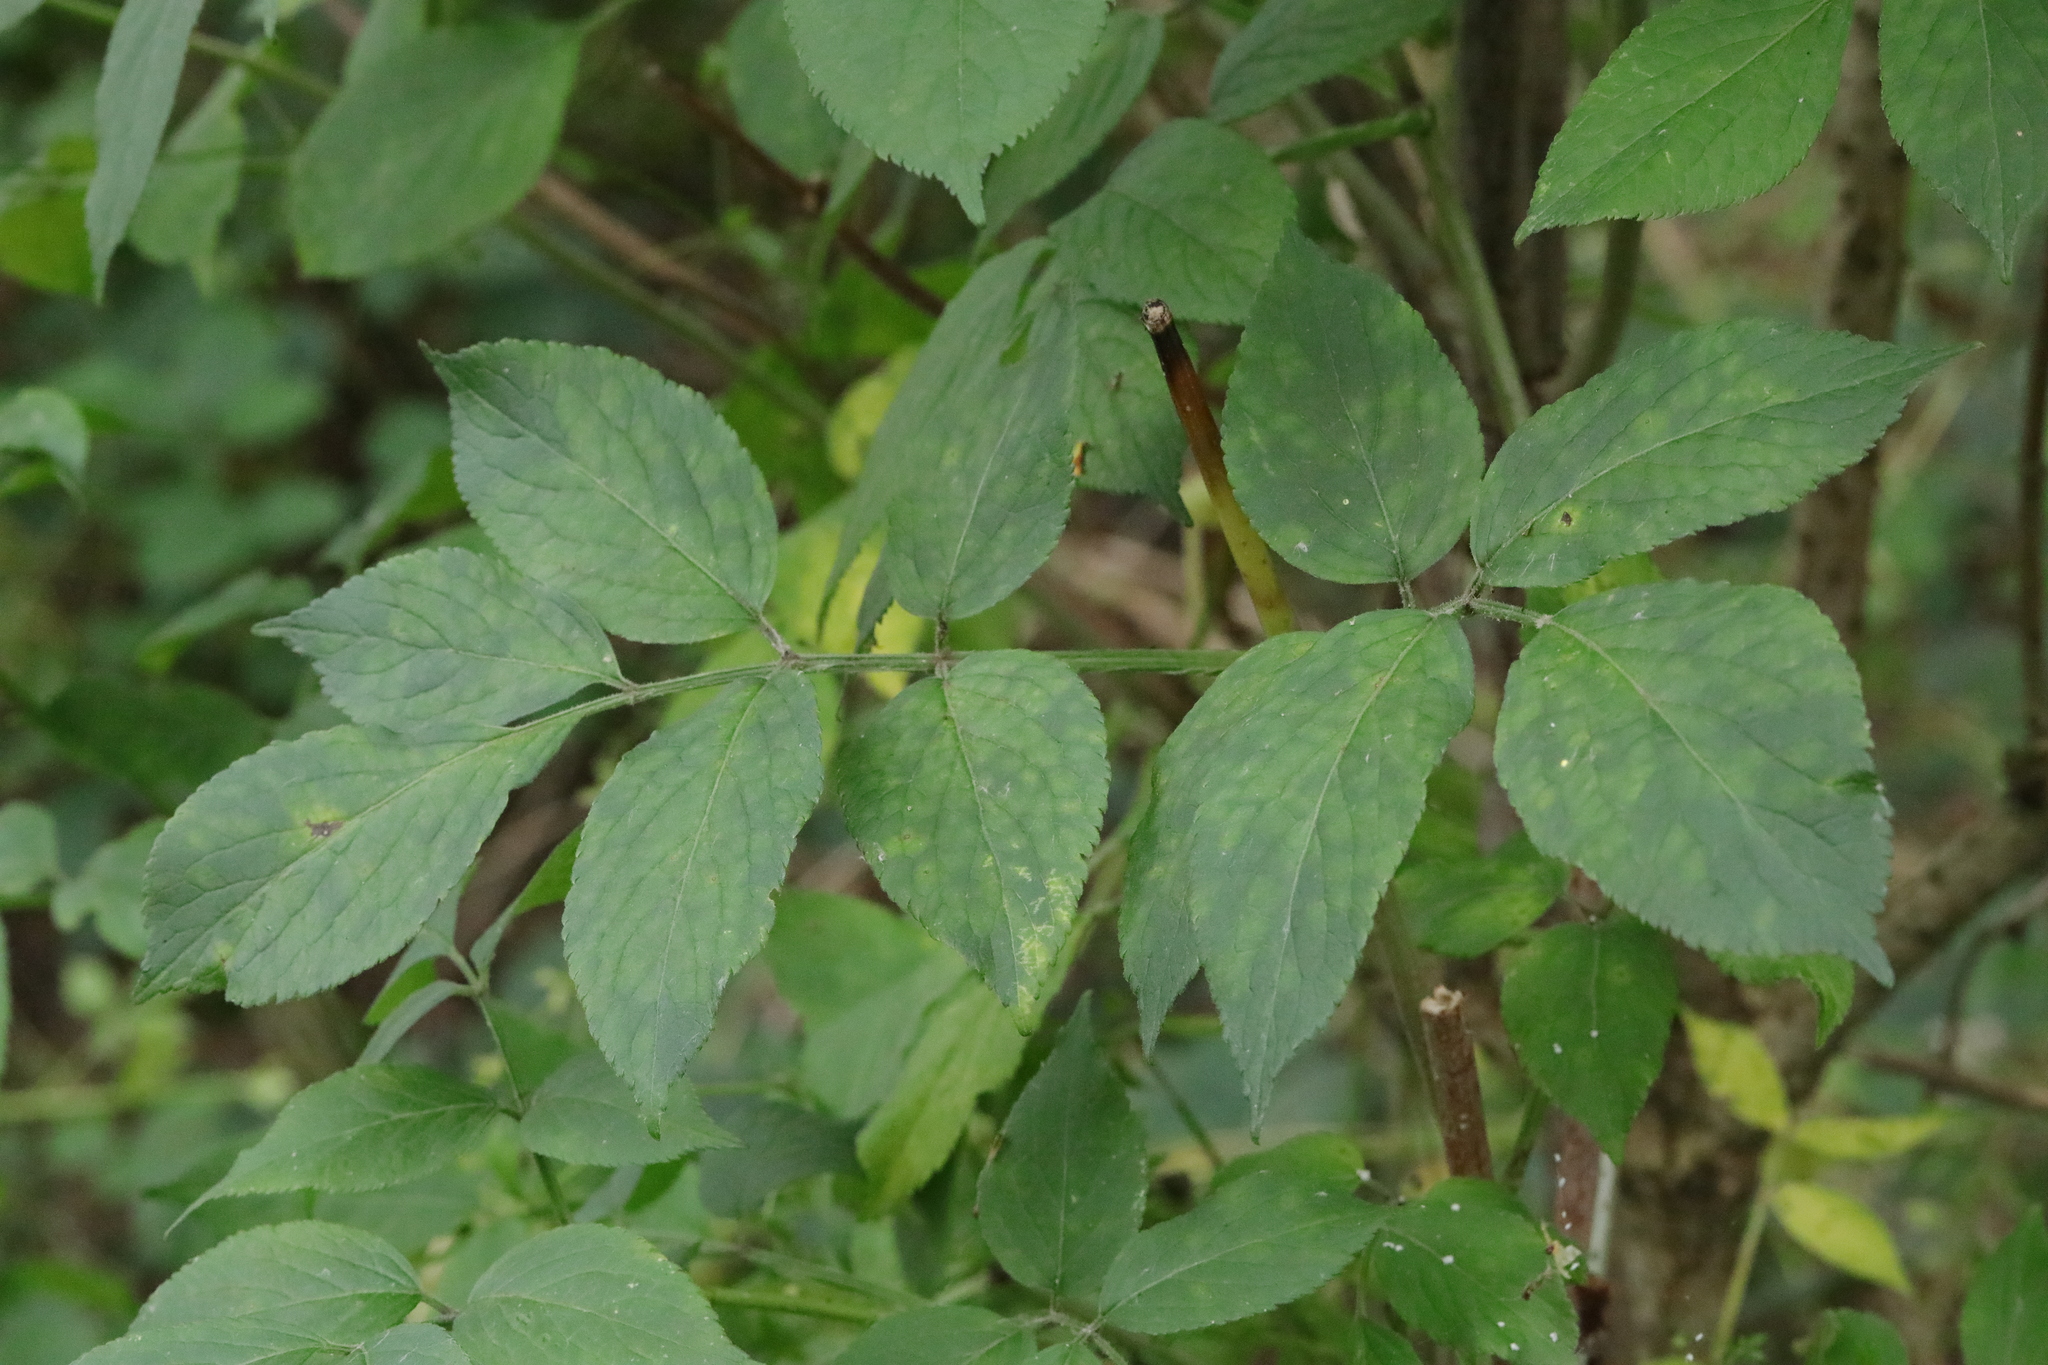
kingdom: Plantae
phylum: Tracheophyta
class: Magnoliopsida
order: Dipsacales
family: Viburnaceae
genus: Sambucus
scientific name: Sambucus nigra
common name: Elder
